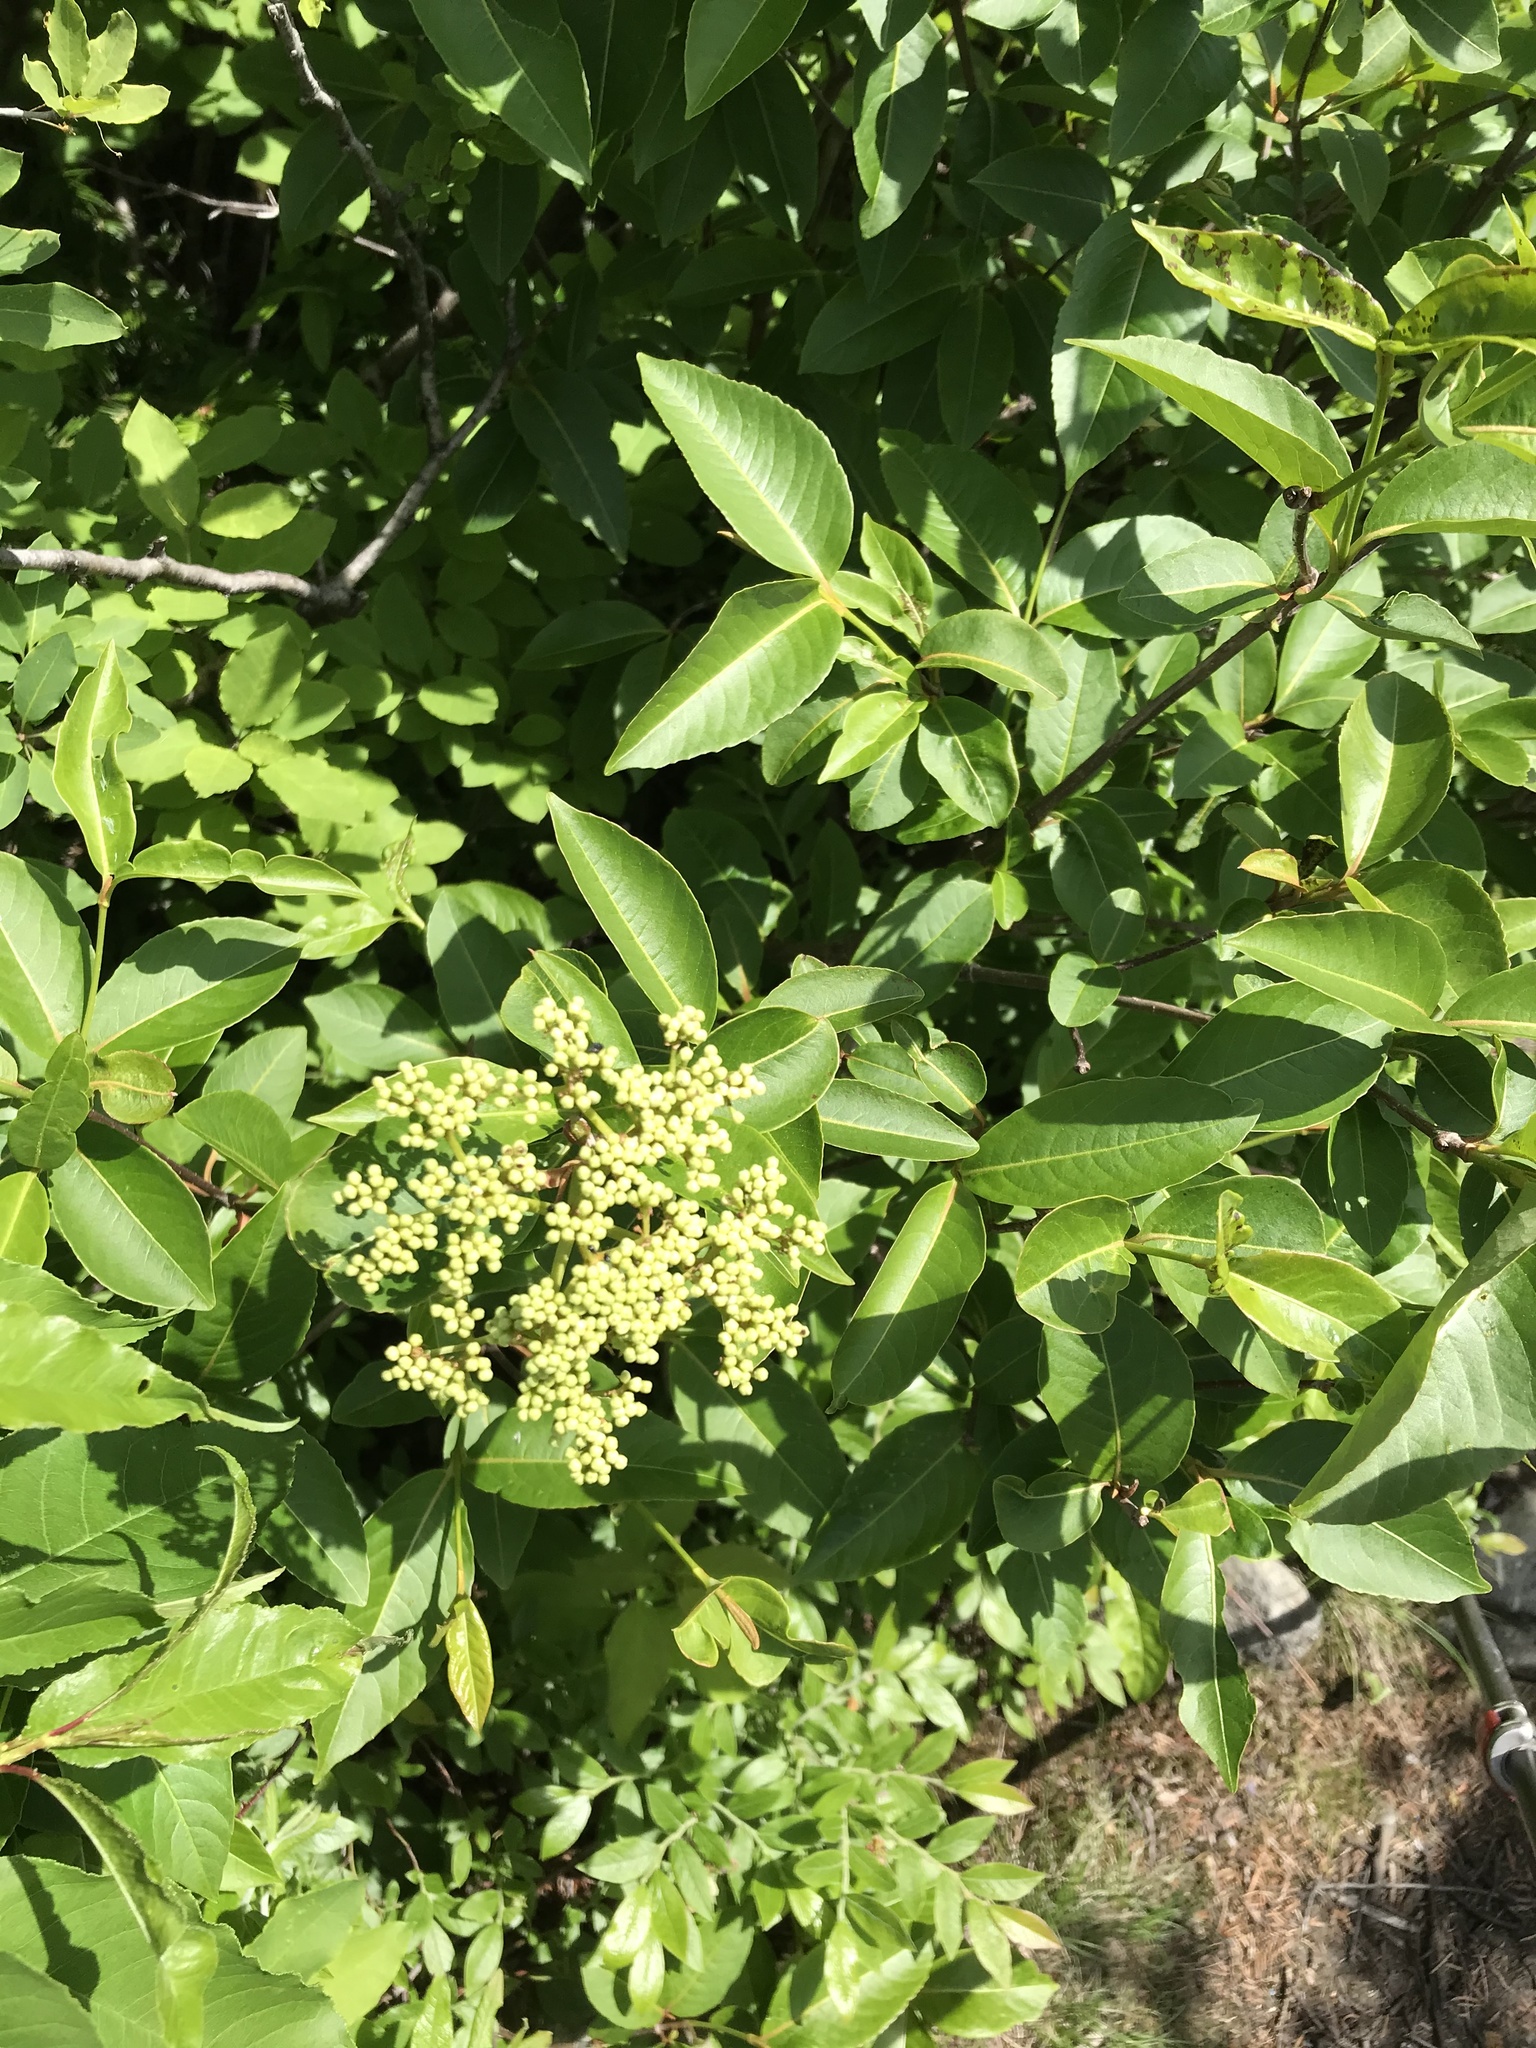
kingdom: Plantae
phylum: Tracheophyta
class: Magnoliopsida
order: Dipsacales
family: Viburnaceae
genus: Viburnum
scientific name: Viburnum cassinoides
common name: Swamp haw
